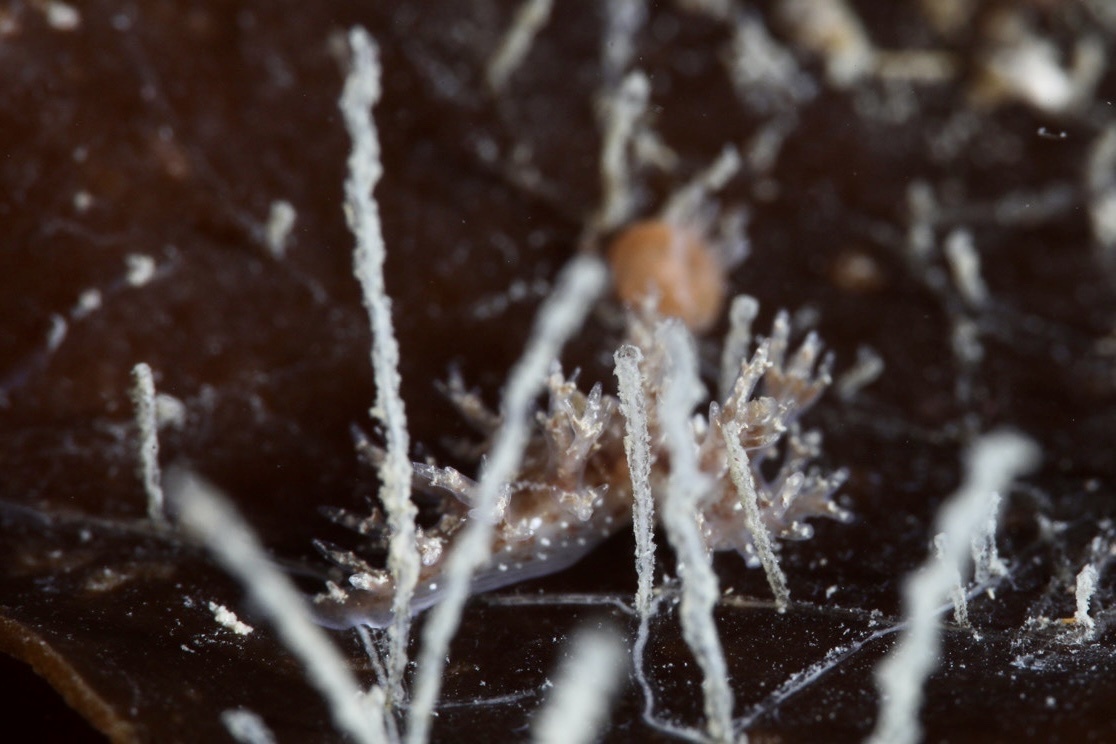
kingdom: Animalia
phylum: Mollusca
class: Gastropoda
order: Nudibranchia
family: Dendronotidae
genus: Dendronotus
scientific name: Dendronotus frondosus
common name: Bushy-backed nudibranch
